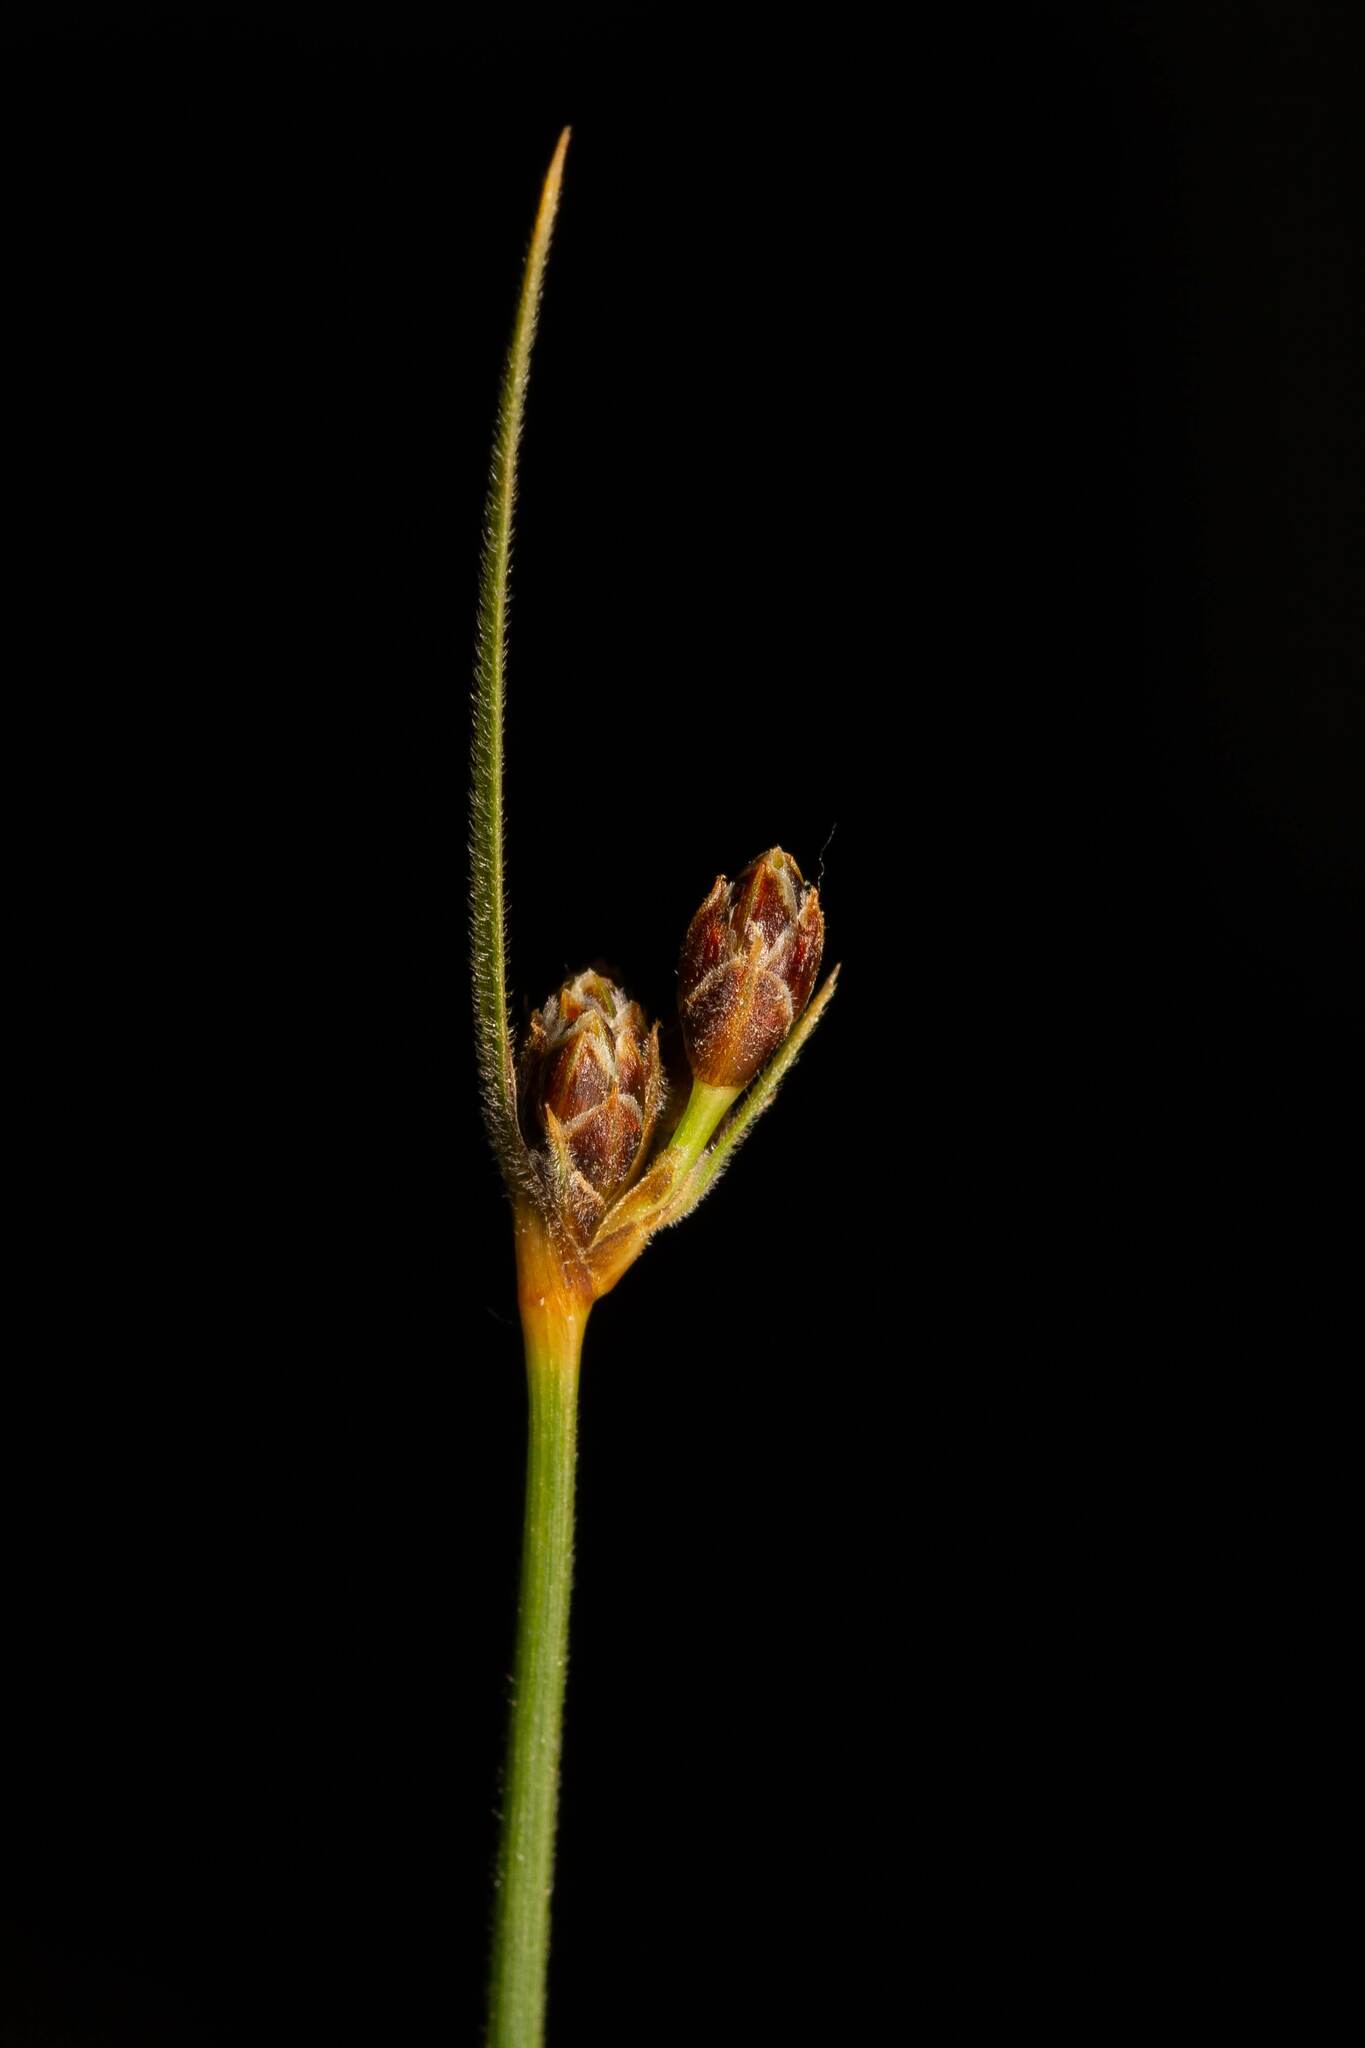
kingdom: Plantae
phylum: Tracheophyta
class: Liliopsida
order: Poales
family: Cyperaceae
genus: Fimbristylis
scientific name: Fimbristylis puberula
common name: Hairy fimbristylis
